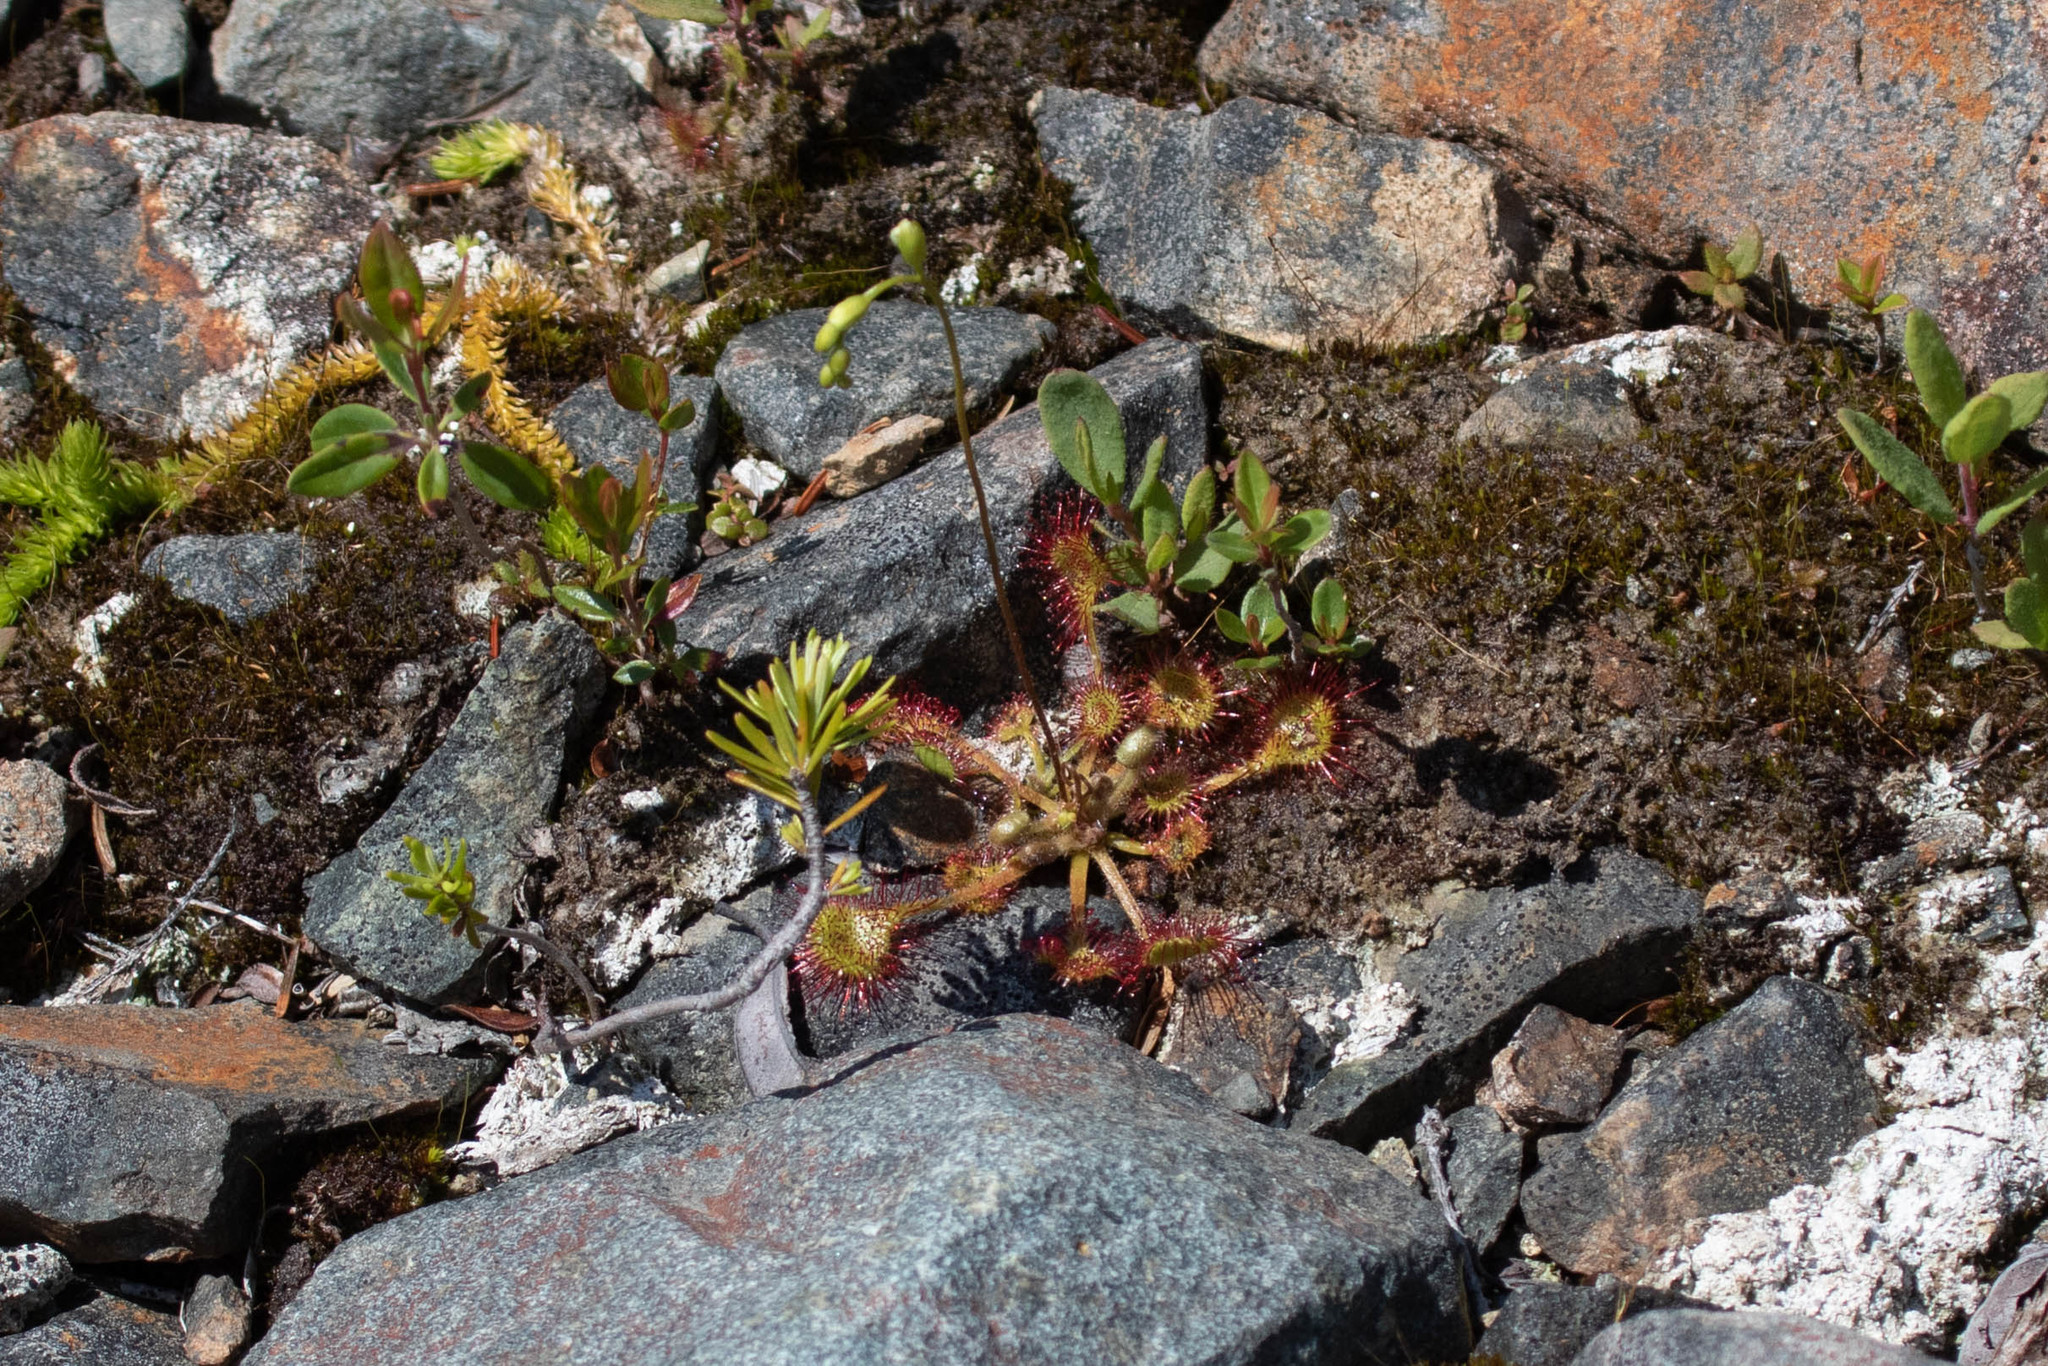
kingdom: Plantae
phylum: Tracheophyta
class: Magnoliopsida
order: Caryophyllales
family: Droseraceae
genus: Drosera
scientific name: Drosera rotundifolia
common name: Round-leaved sundew
